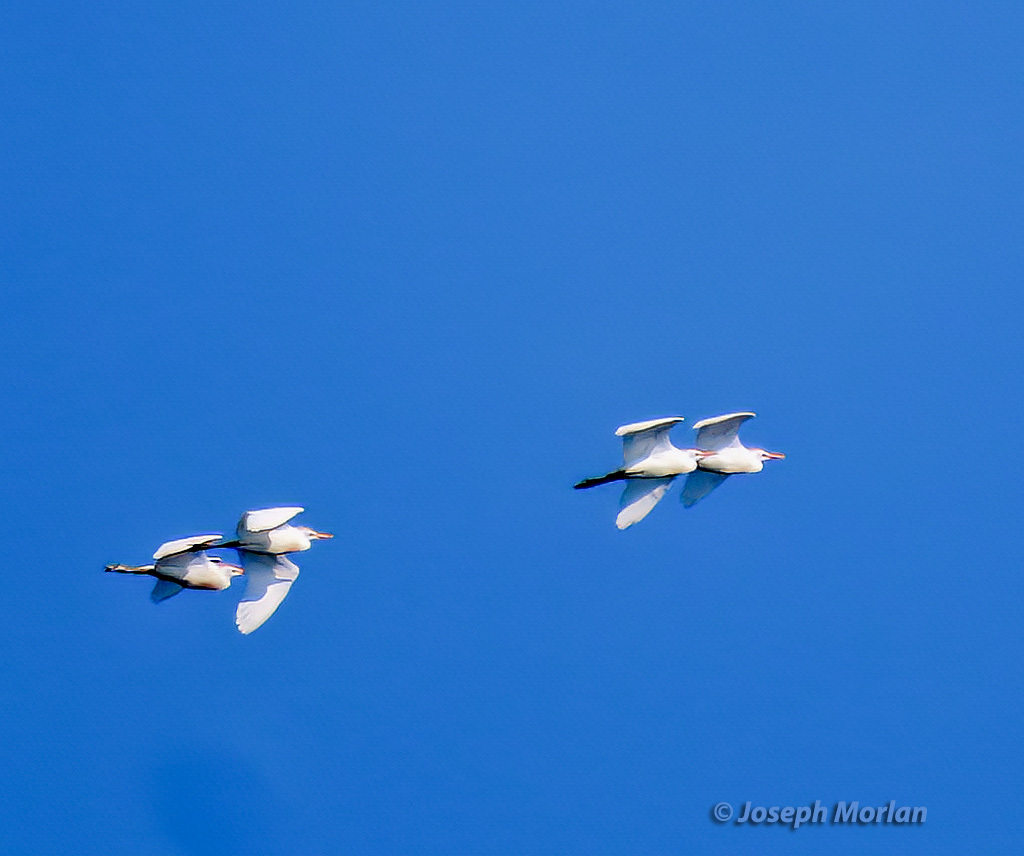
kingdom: Animalia
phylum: Chordata
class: Aves
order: Pelecaniformes
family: Ardeidae
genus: Bubulcus
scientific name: Bubulcus ibis
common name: Cattle egret
